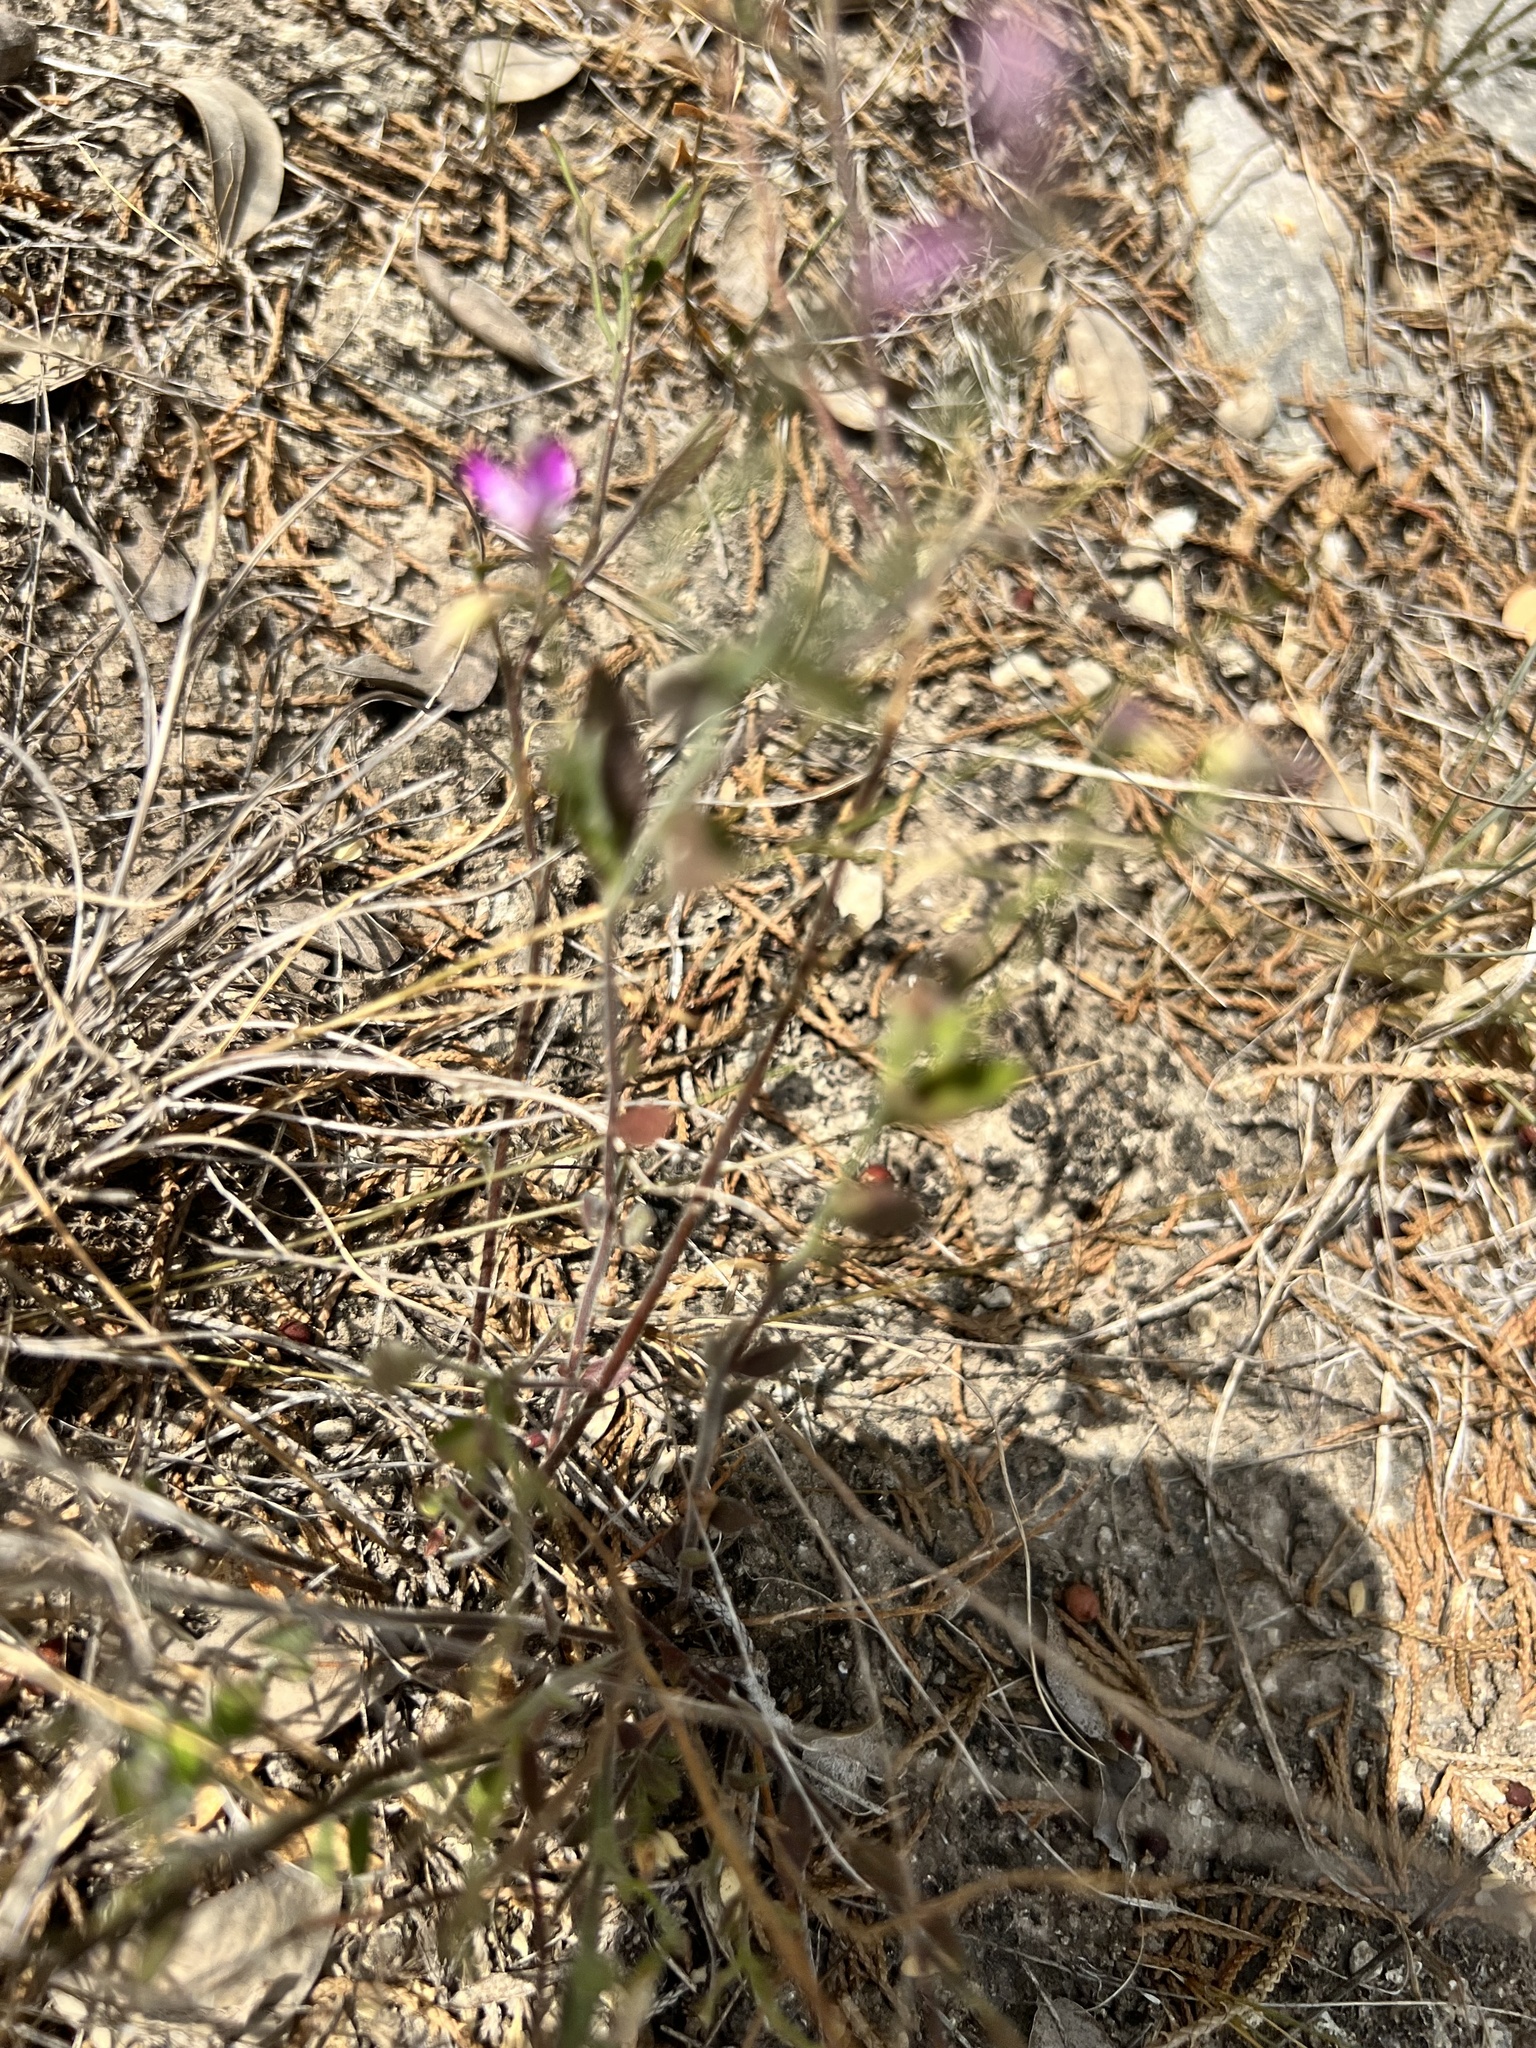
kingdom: Plantae
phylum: Tracheophyta
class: Magnoliopsida
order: Fabales
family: Polygalaceae
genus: Rhinotropis
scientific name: Rhinotropis lindheimeri
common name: Shrubby milkwort
